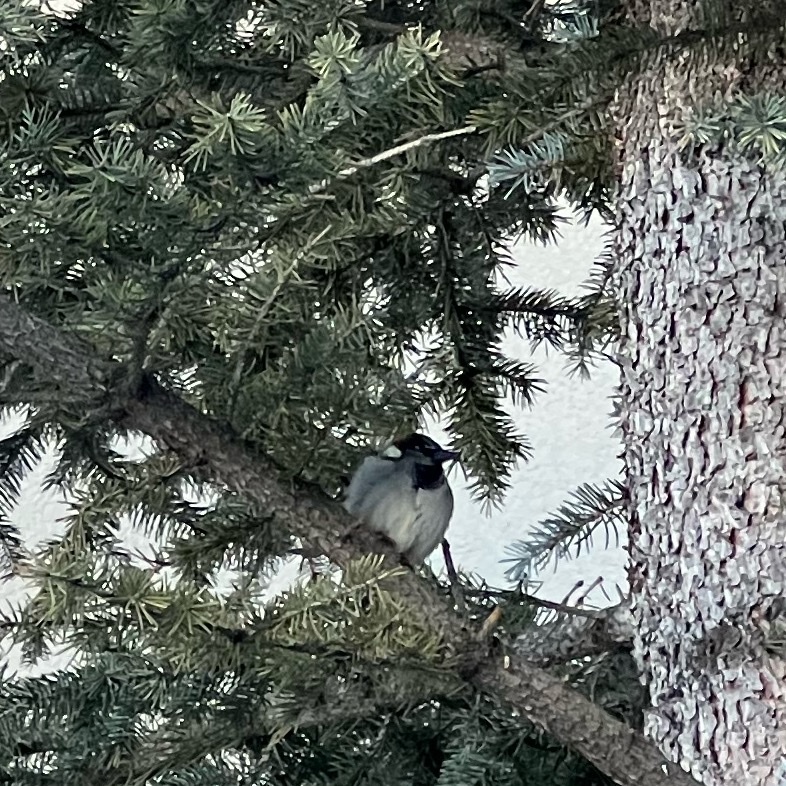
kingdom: Animalia
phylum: Chordata
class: Aves
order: Passeriformes
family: Passeridae
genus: Passer
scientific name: Passer domesticus
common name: House sparrow
